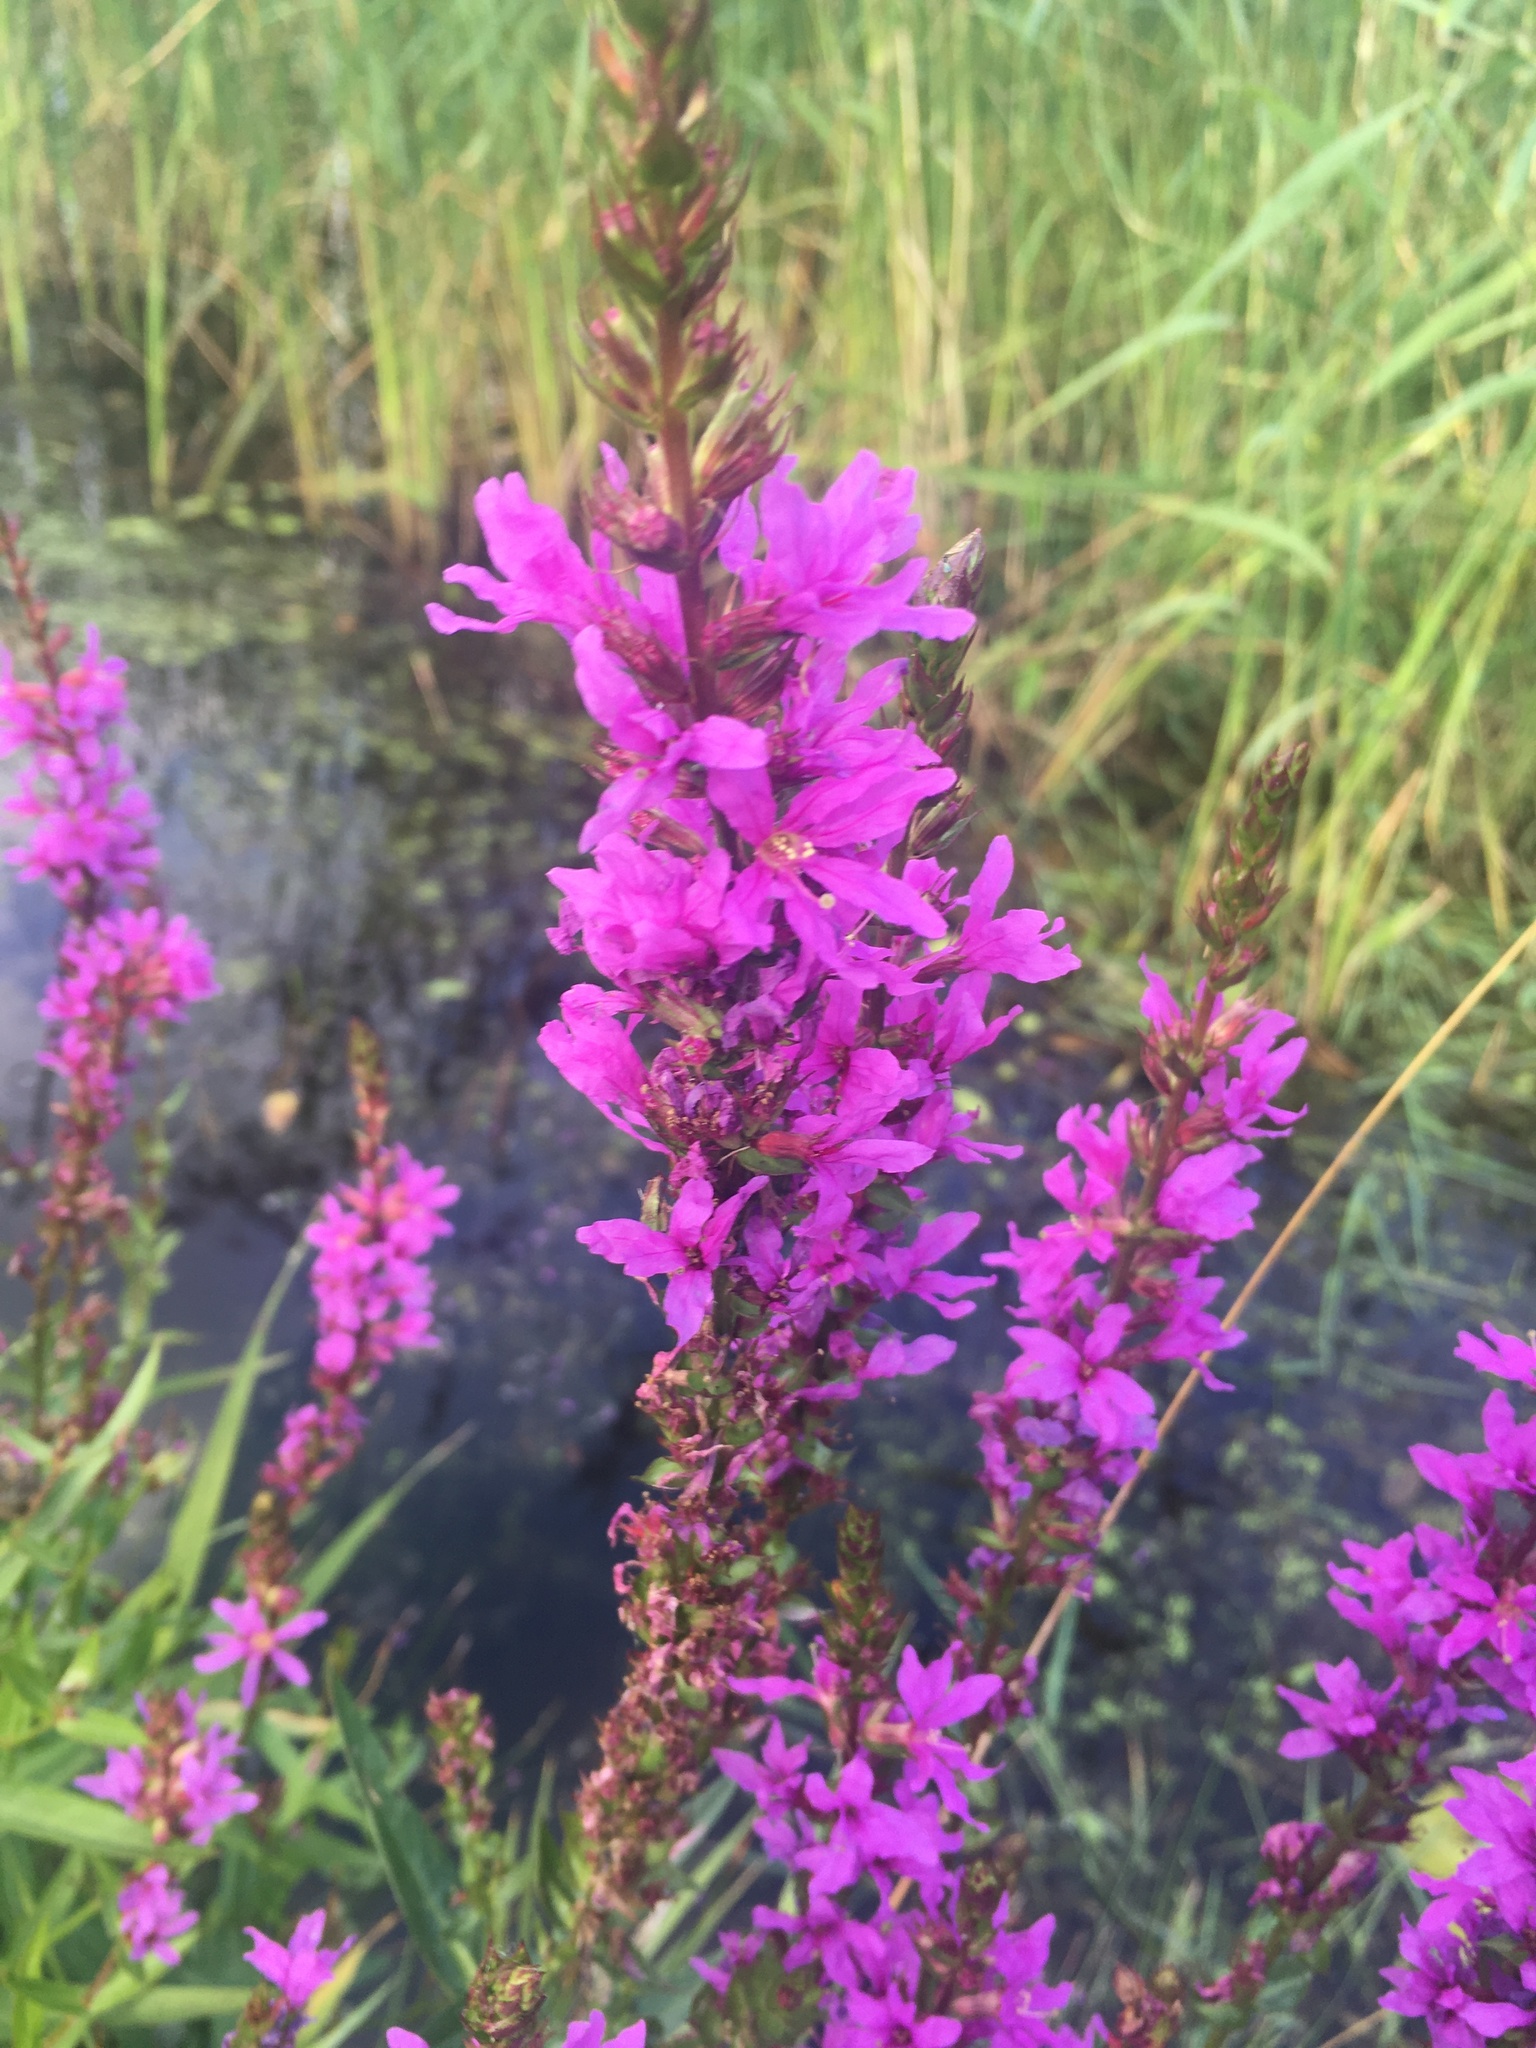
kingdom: Plantae
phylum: Tracheophyta
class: Magnoliopsida
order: Myrtales
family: Lythraceae
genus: Lythrum
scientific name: Lythrum salicaria
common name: Purple loosestrife
